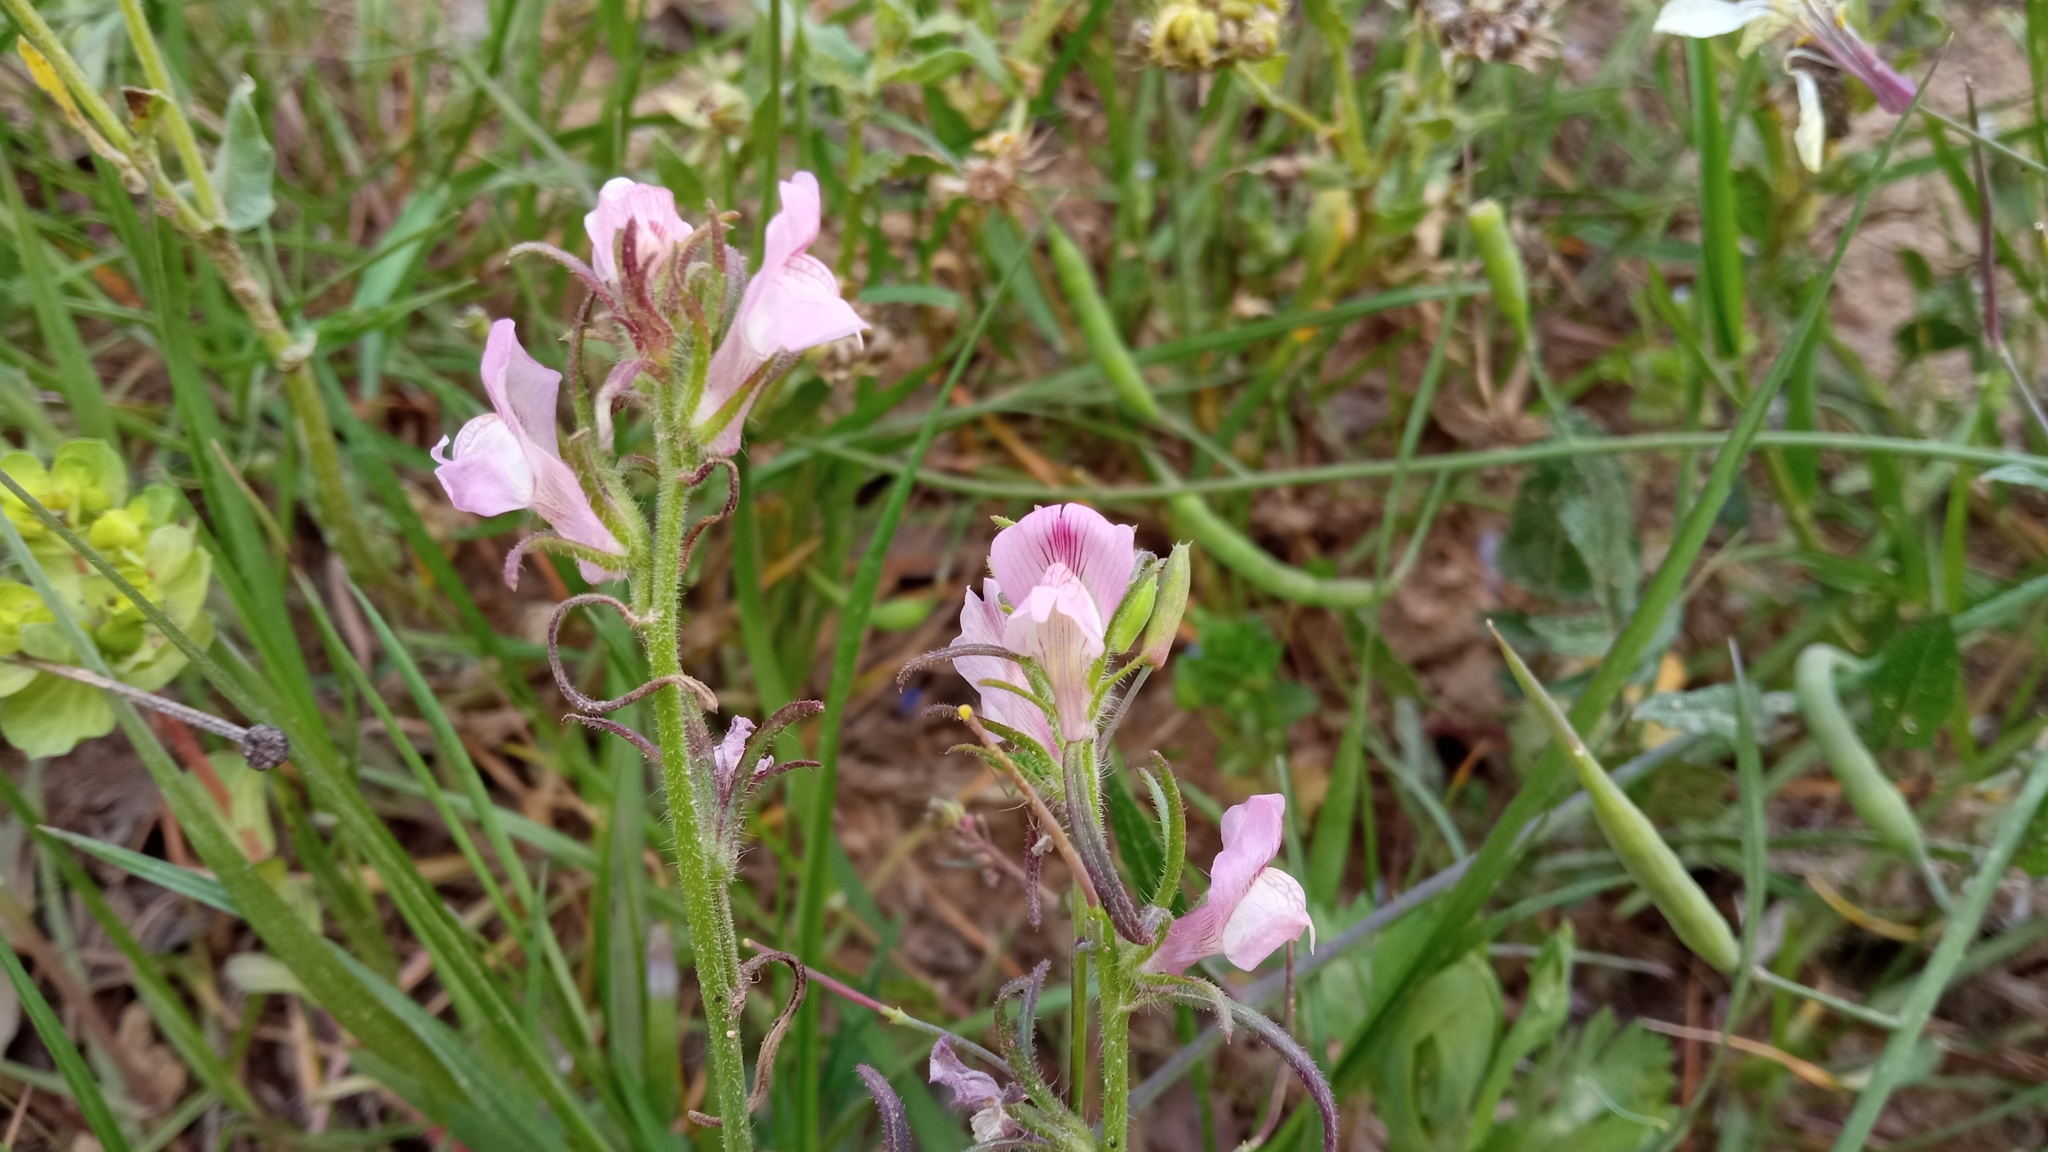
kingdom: Plantae
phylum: Tracheophyta
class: Magnoliopsida
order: Lamiales
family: Plantaginaceae
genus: Misopates
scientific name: Misopates orontium
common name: Weasel's-snout
